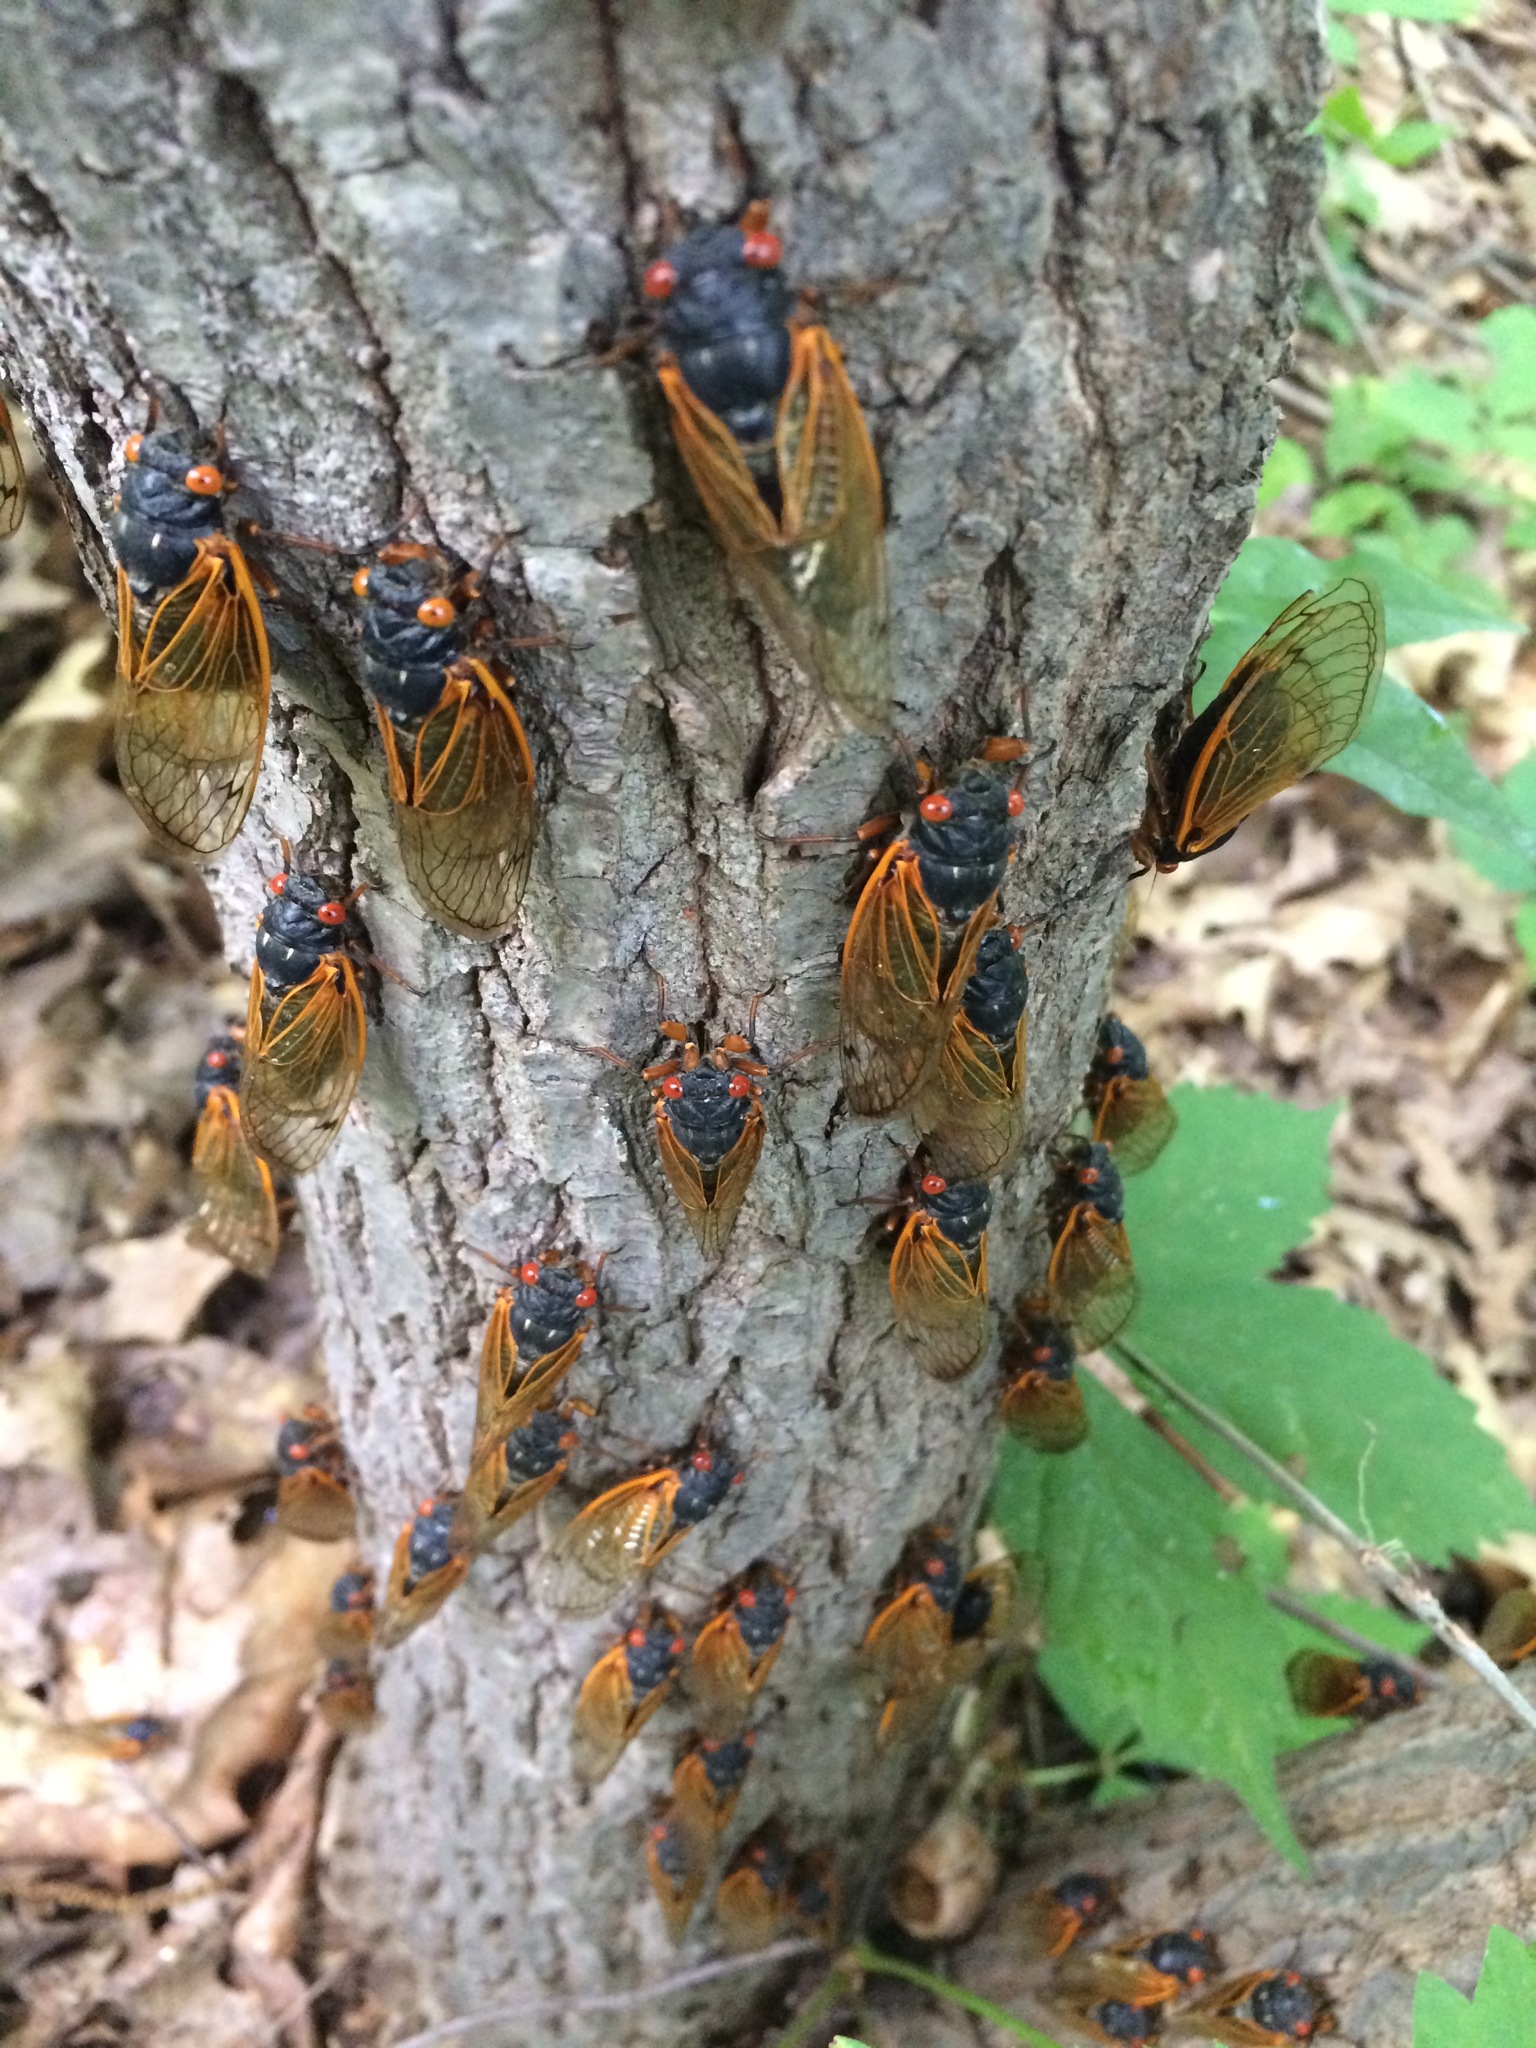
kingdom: Animalia
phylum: Arthropoda
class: Insecta
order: Hemiptera
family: Cicadidae
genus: Magicicada
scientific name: Magicicada
